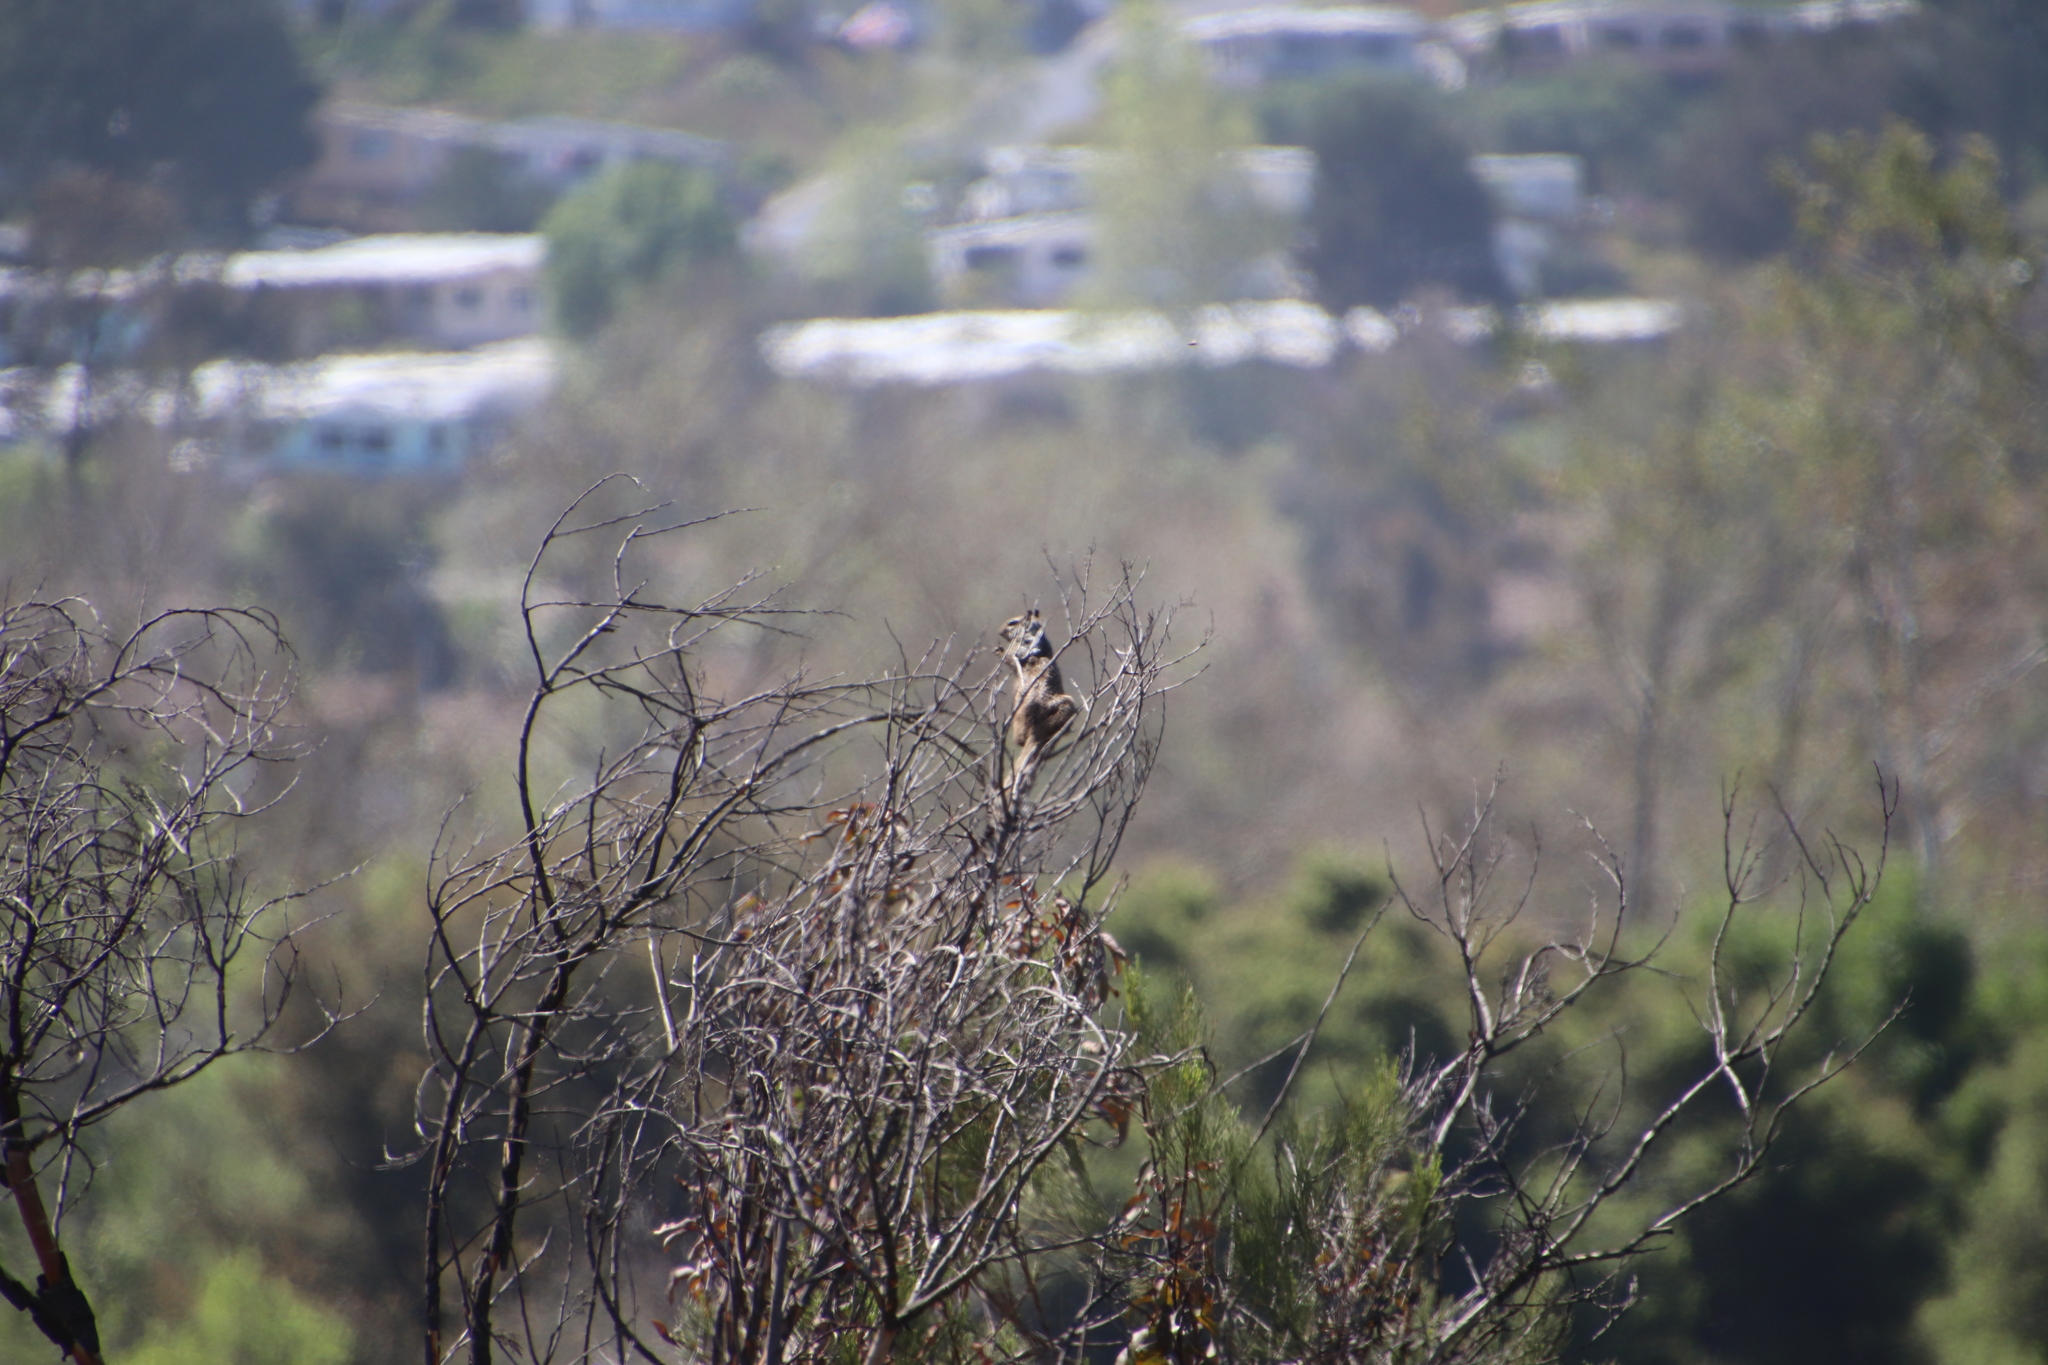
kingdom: Animalia
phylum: Chordata
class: Mammalia
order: Rodentia
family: Sciuridae
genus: Otospermophilus
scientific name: Otospermophilus beecheyi
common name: California ground squirrel
